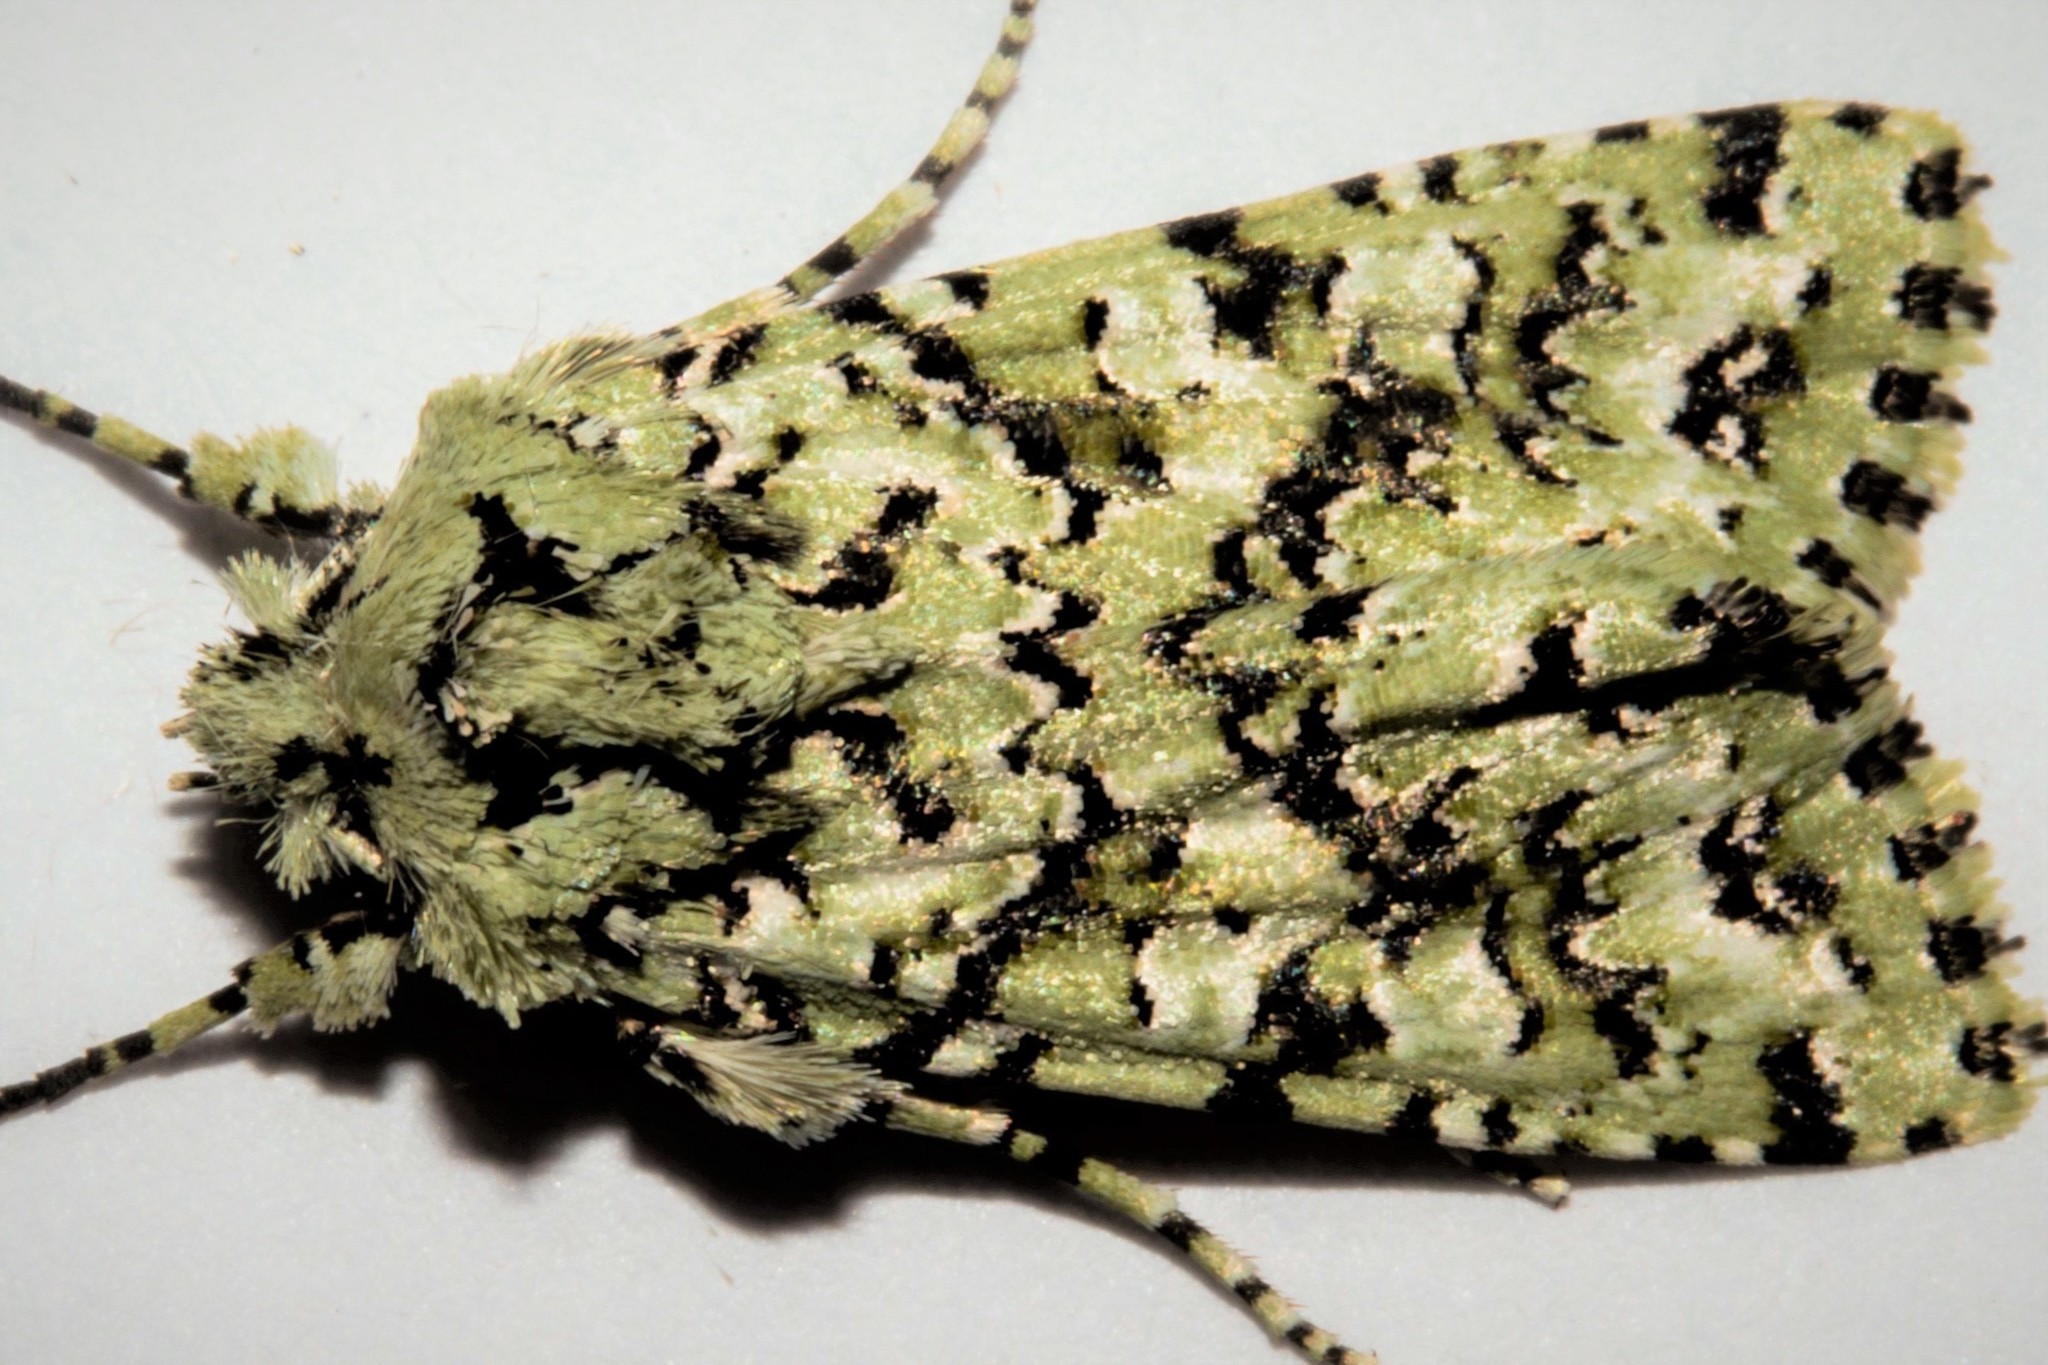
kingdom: Animalia
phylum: Arthropoda
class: Insecta
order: Lepidoptera
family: Noctuidae
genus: Meterana
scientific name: Meterana
